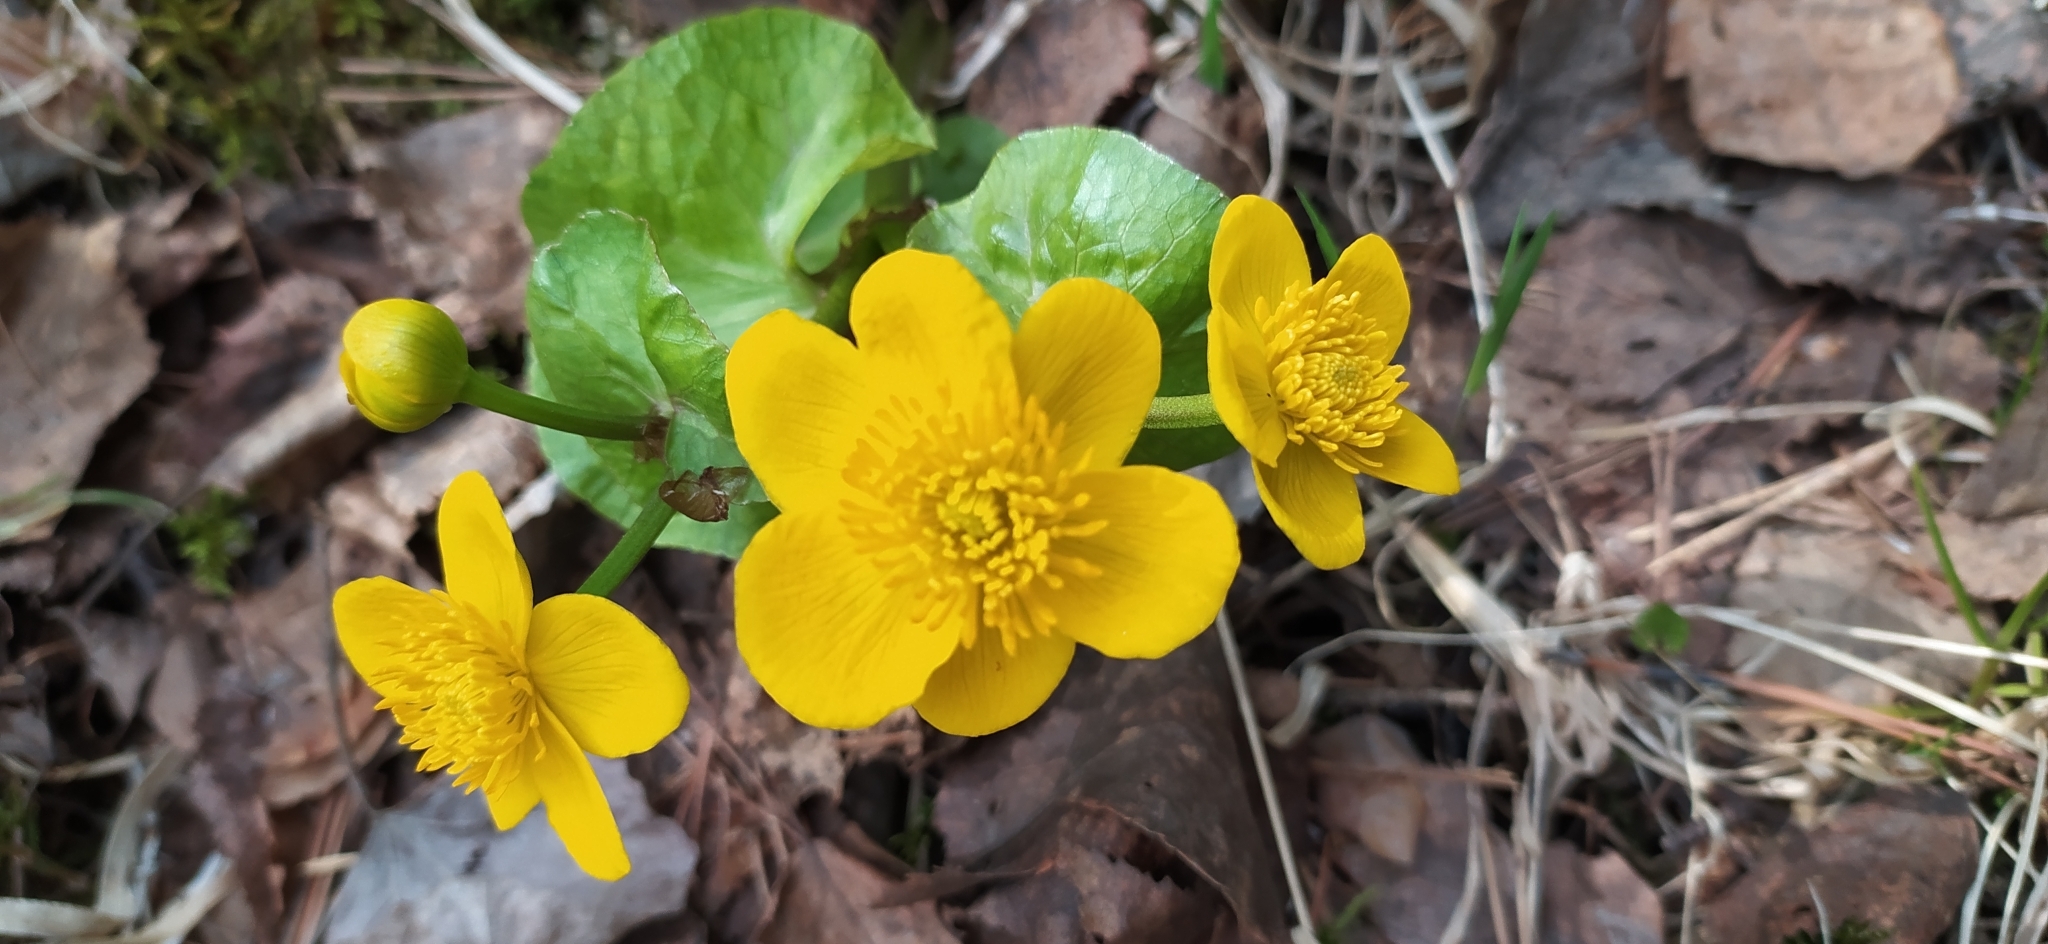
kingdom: Plantae
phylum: Tracheophyta
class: Magnoliopsida
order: Ranunculales
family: Ranunculaceae
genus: Caltha
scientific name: Caltha palustris
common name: Marsh marigold
